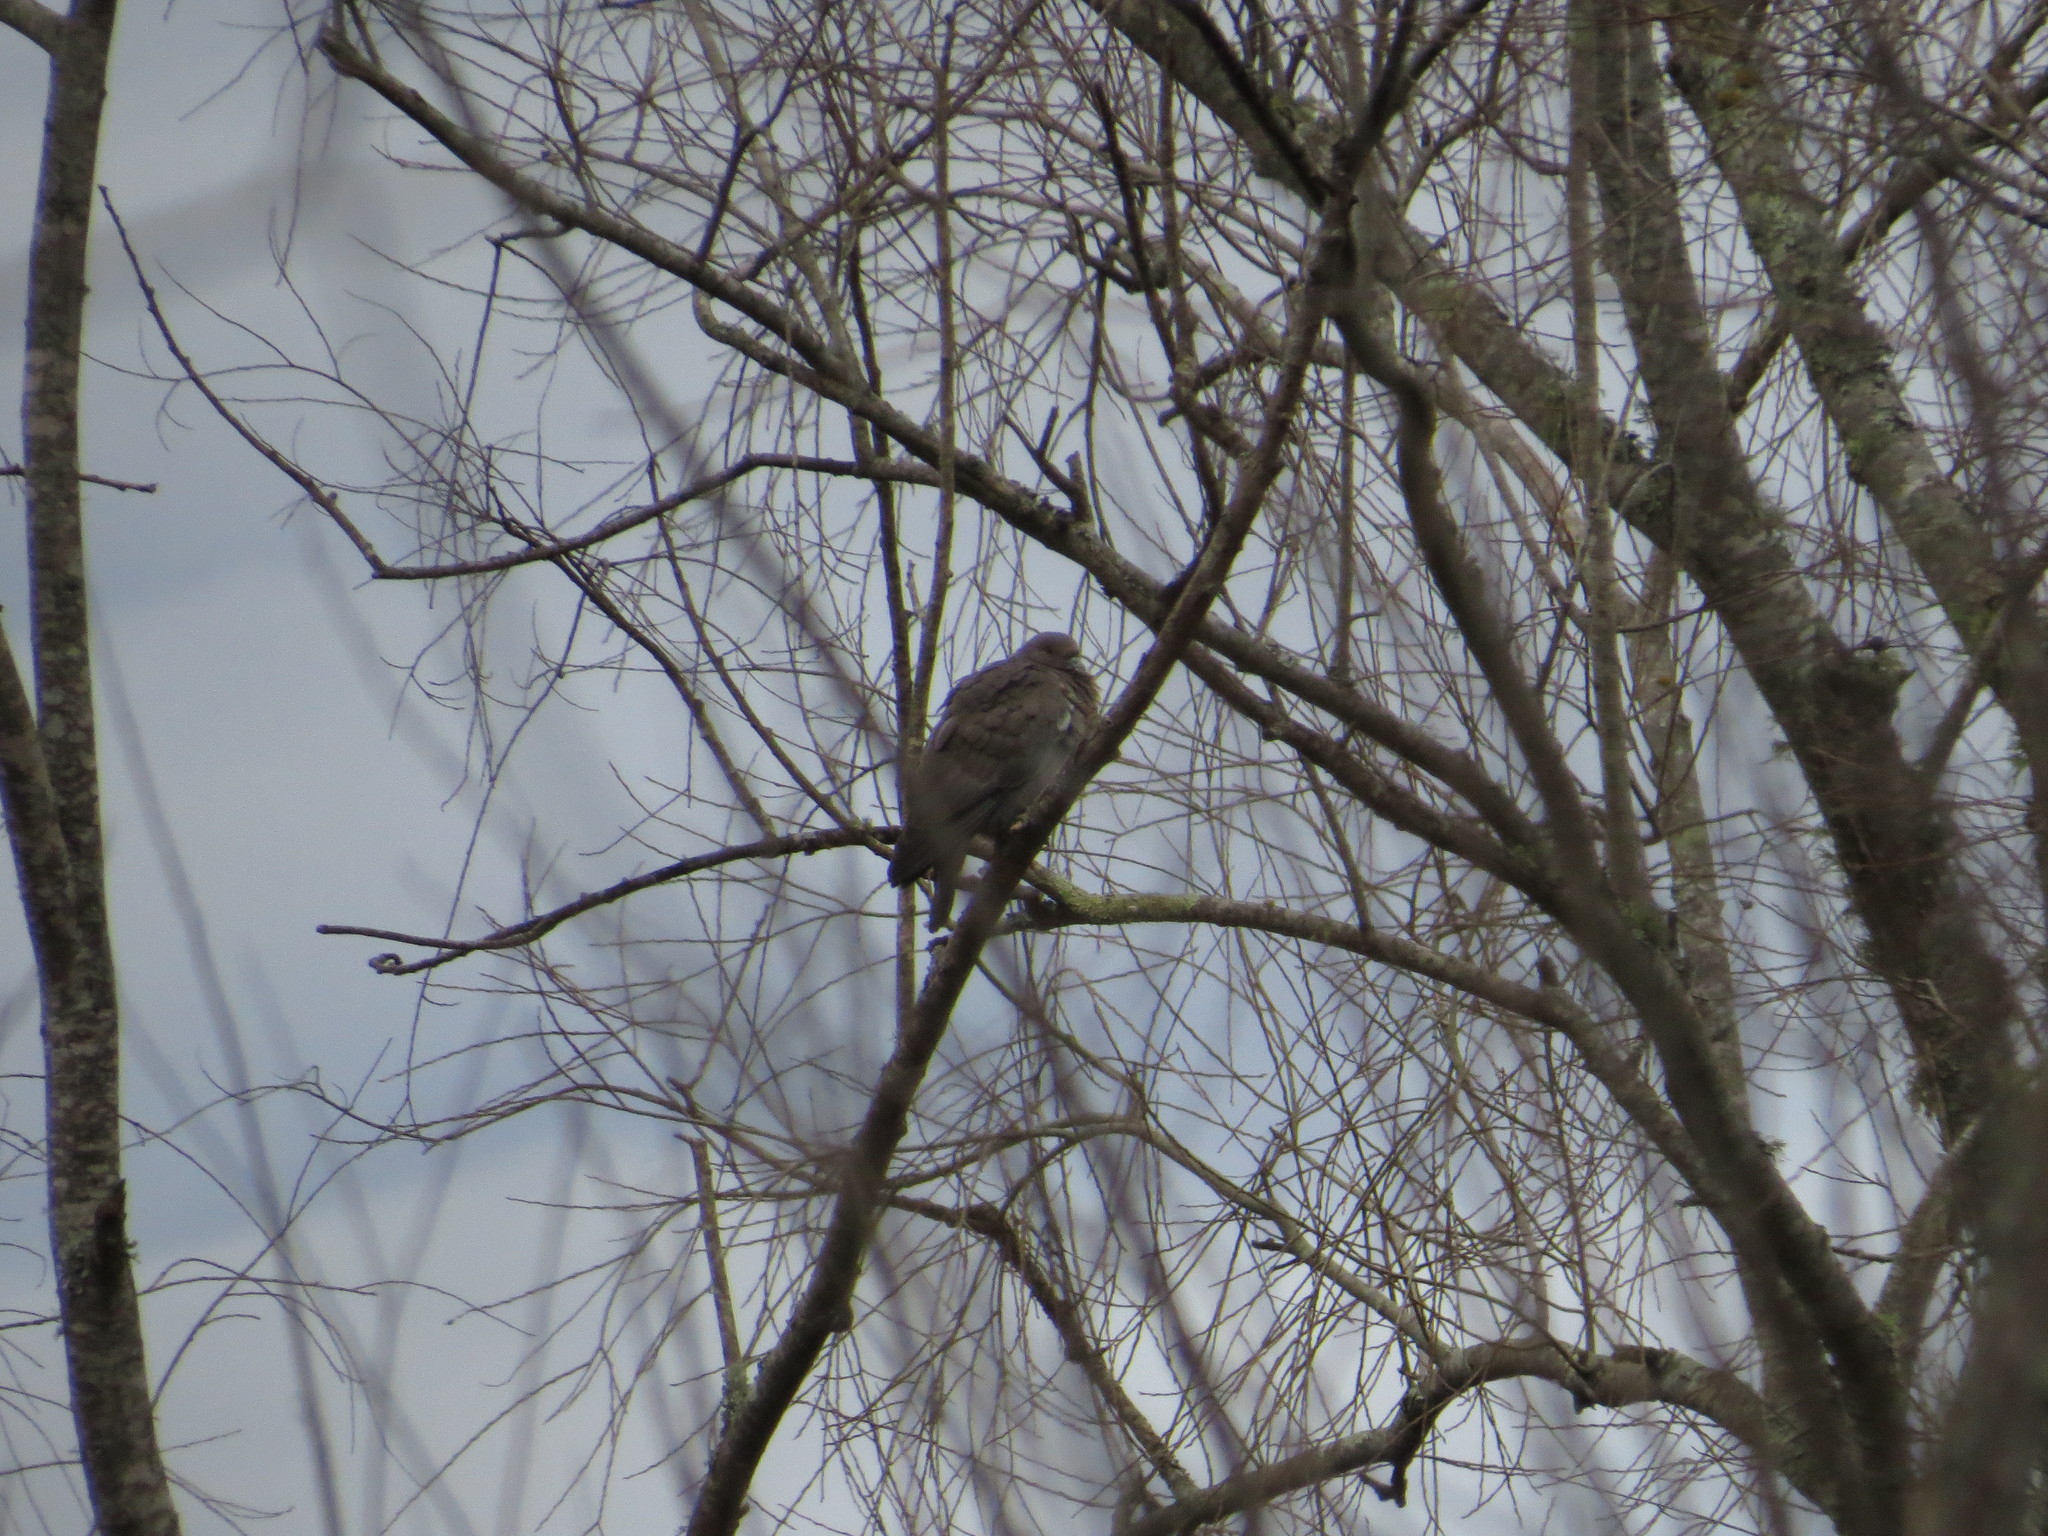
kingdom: Animalia
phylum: Chordata
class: Aves
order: Columbiformes
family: Columbidae
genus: Patagioenas
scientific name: Patagioenas picazuro
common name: Picazuro pigeon
